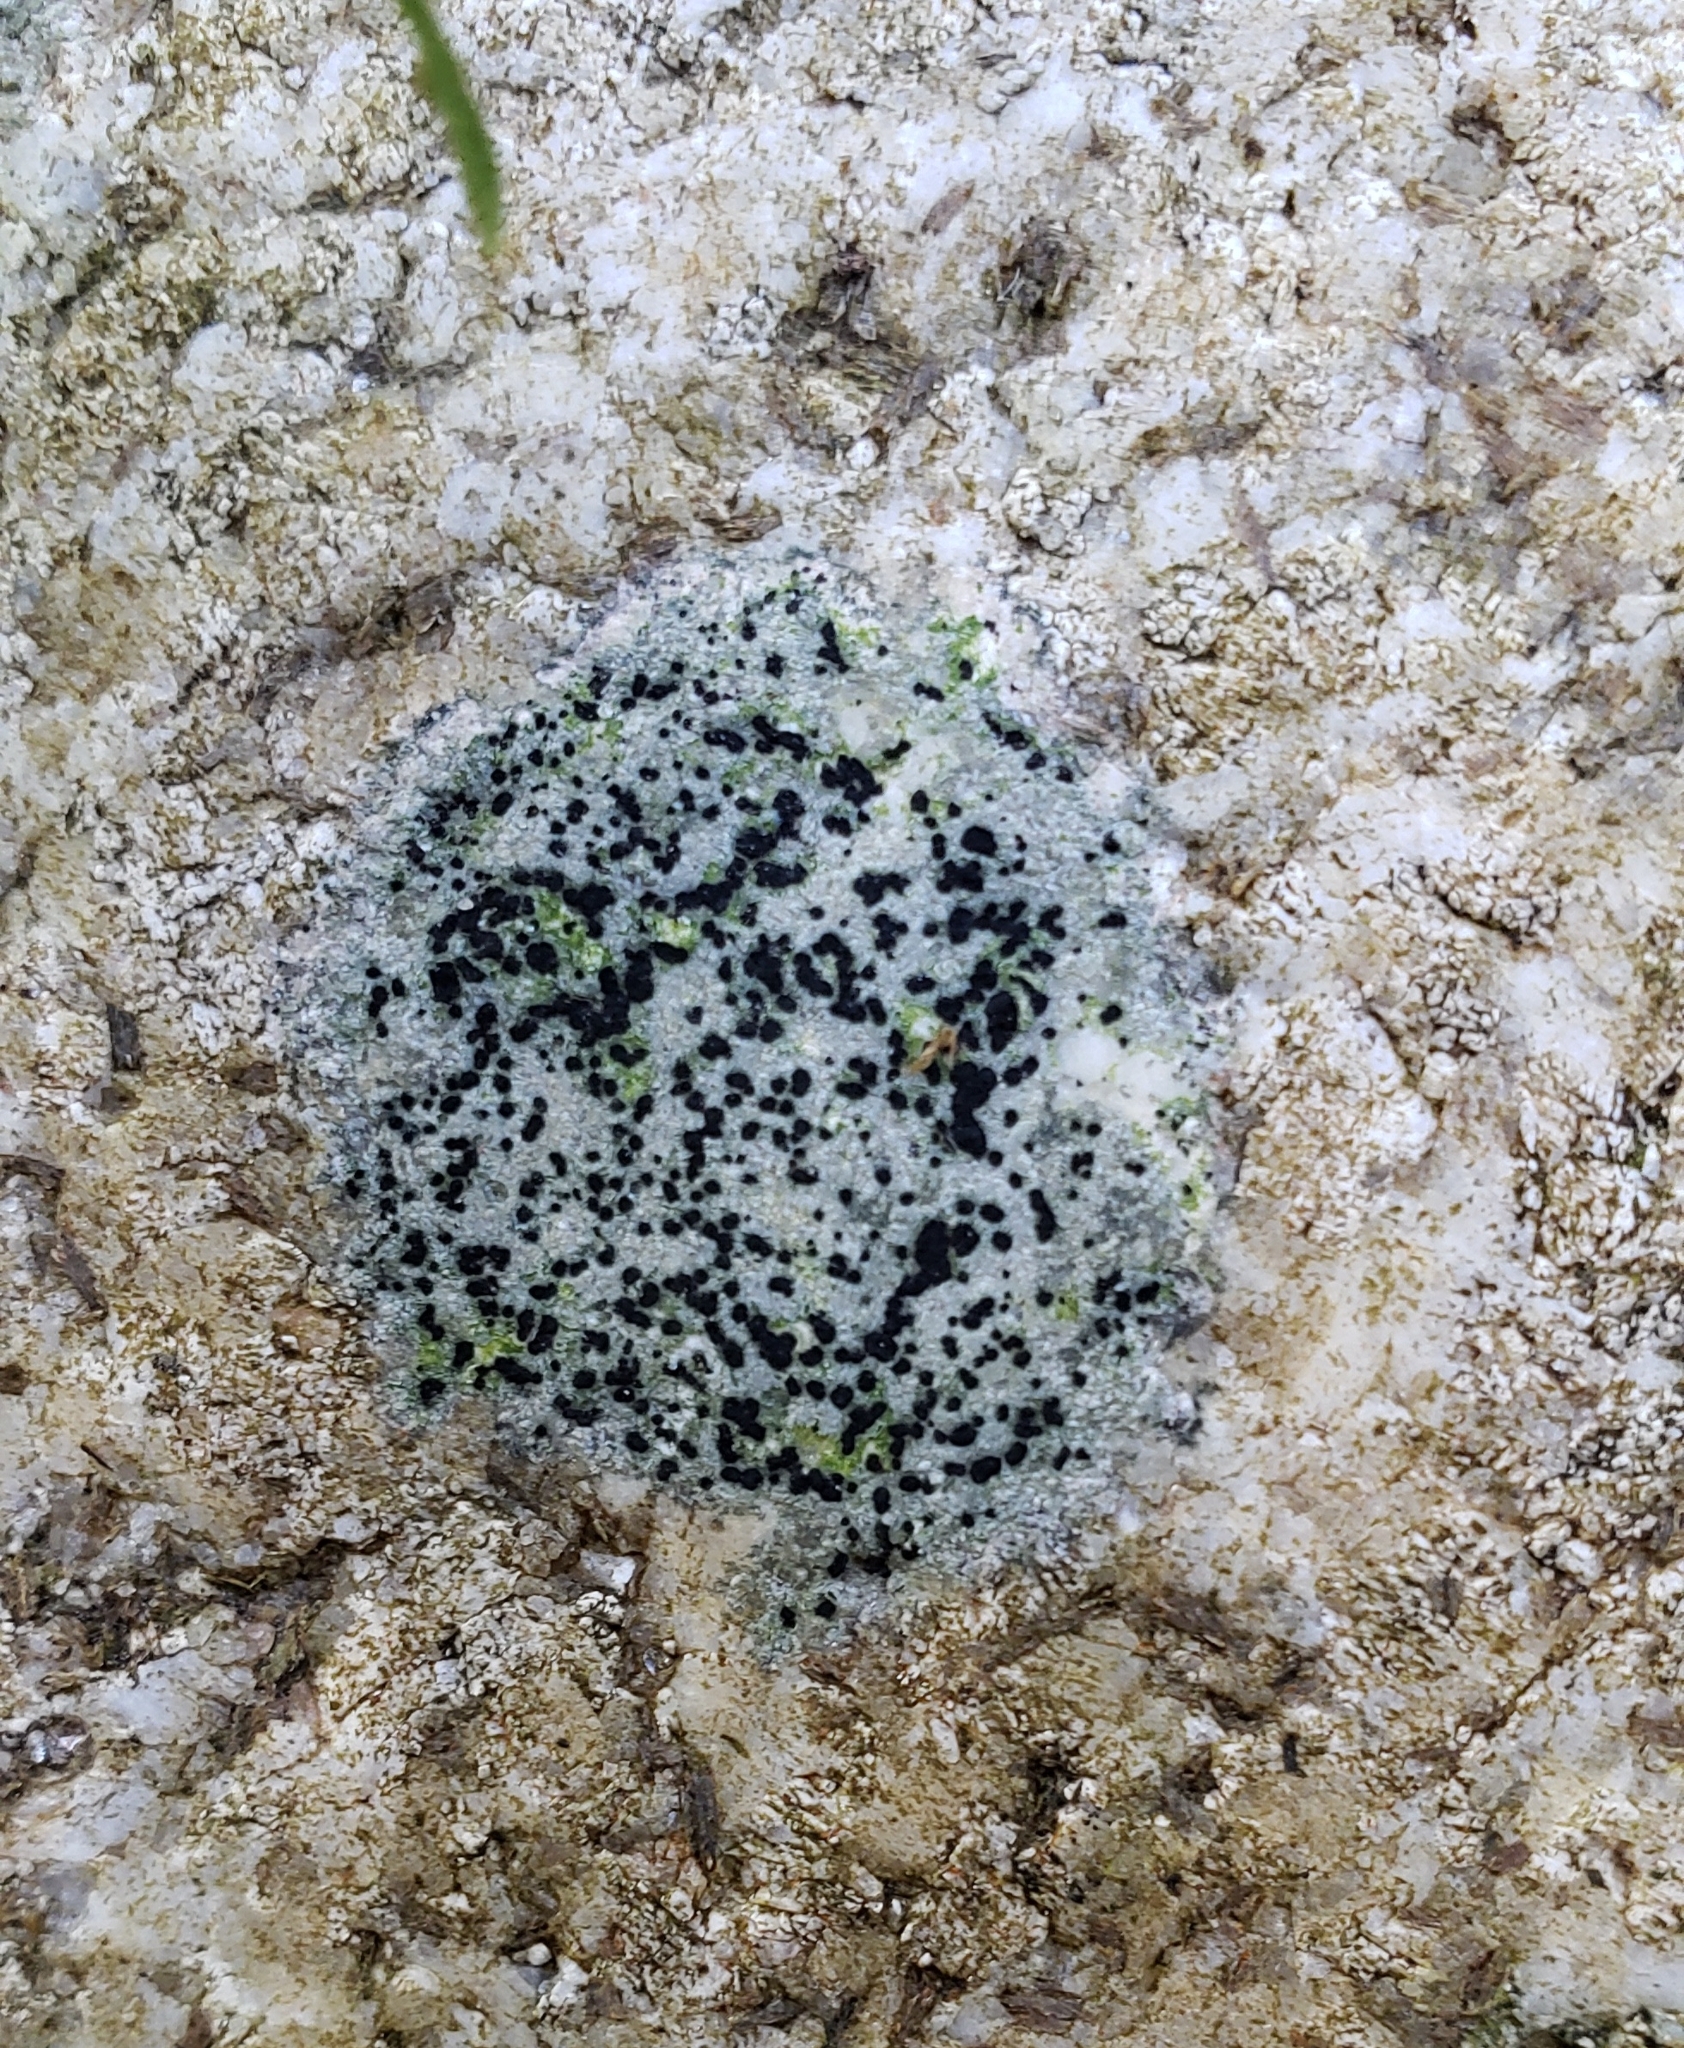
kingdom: Fungi
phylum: Ascomycota
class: Lecanoromycetes
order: Lecideales
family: Lecideaceae
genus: Porpidia
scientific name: Porpidia crustulata
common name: Concentric boulder lichen
